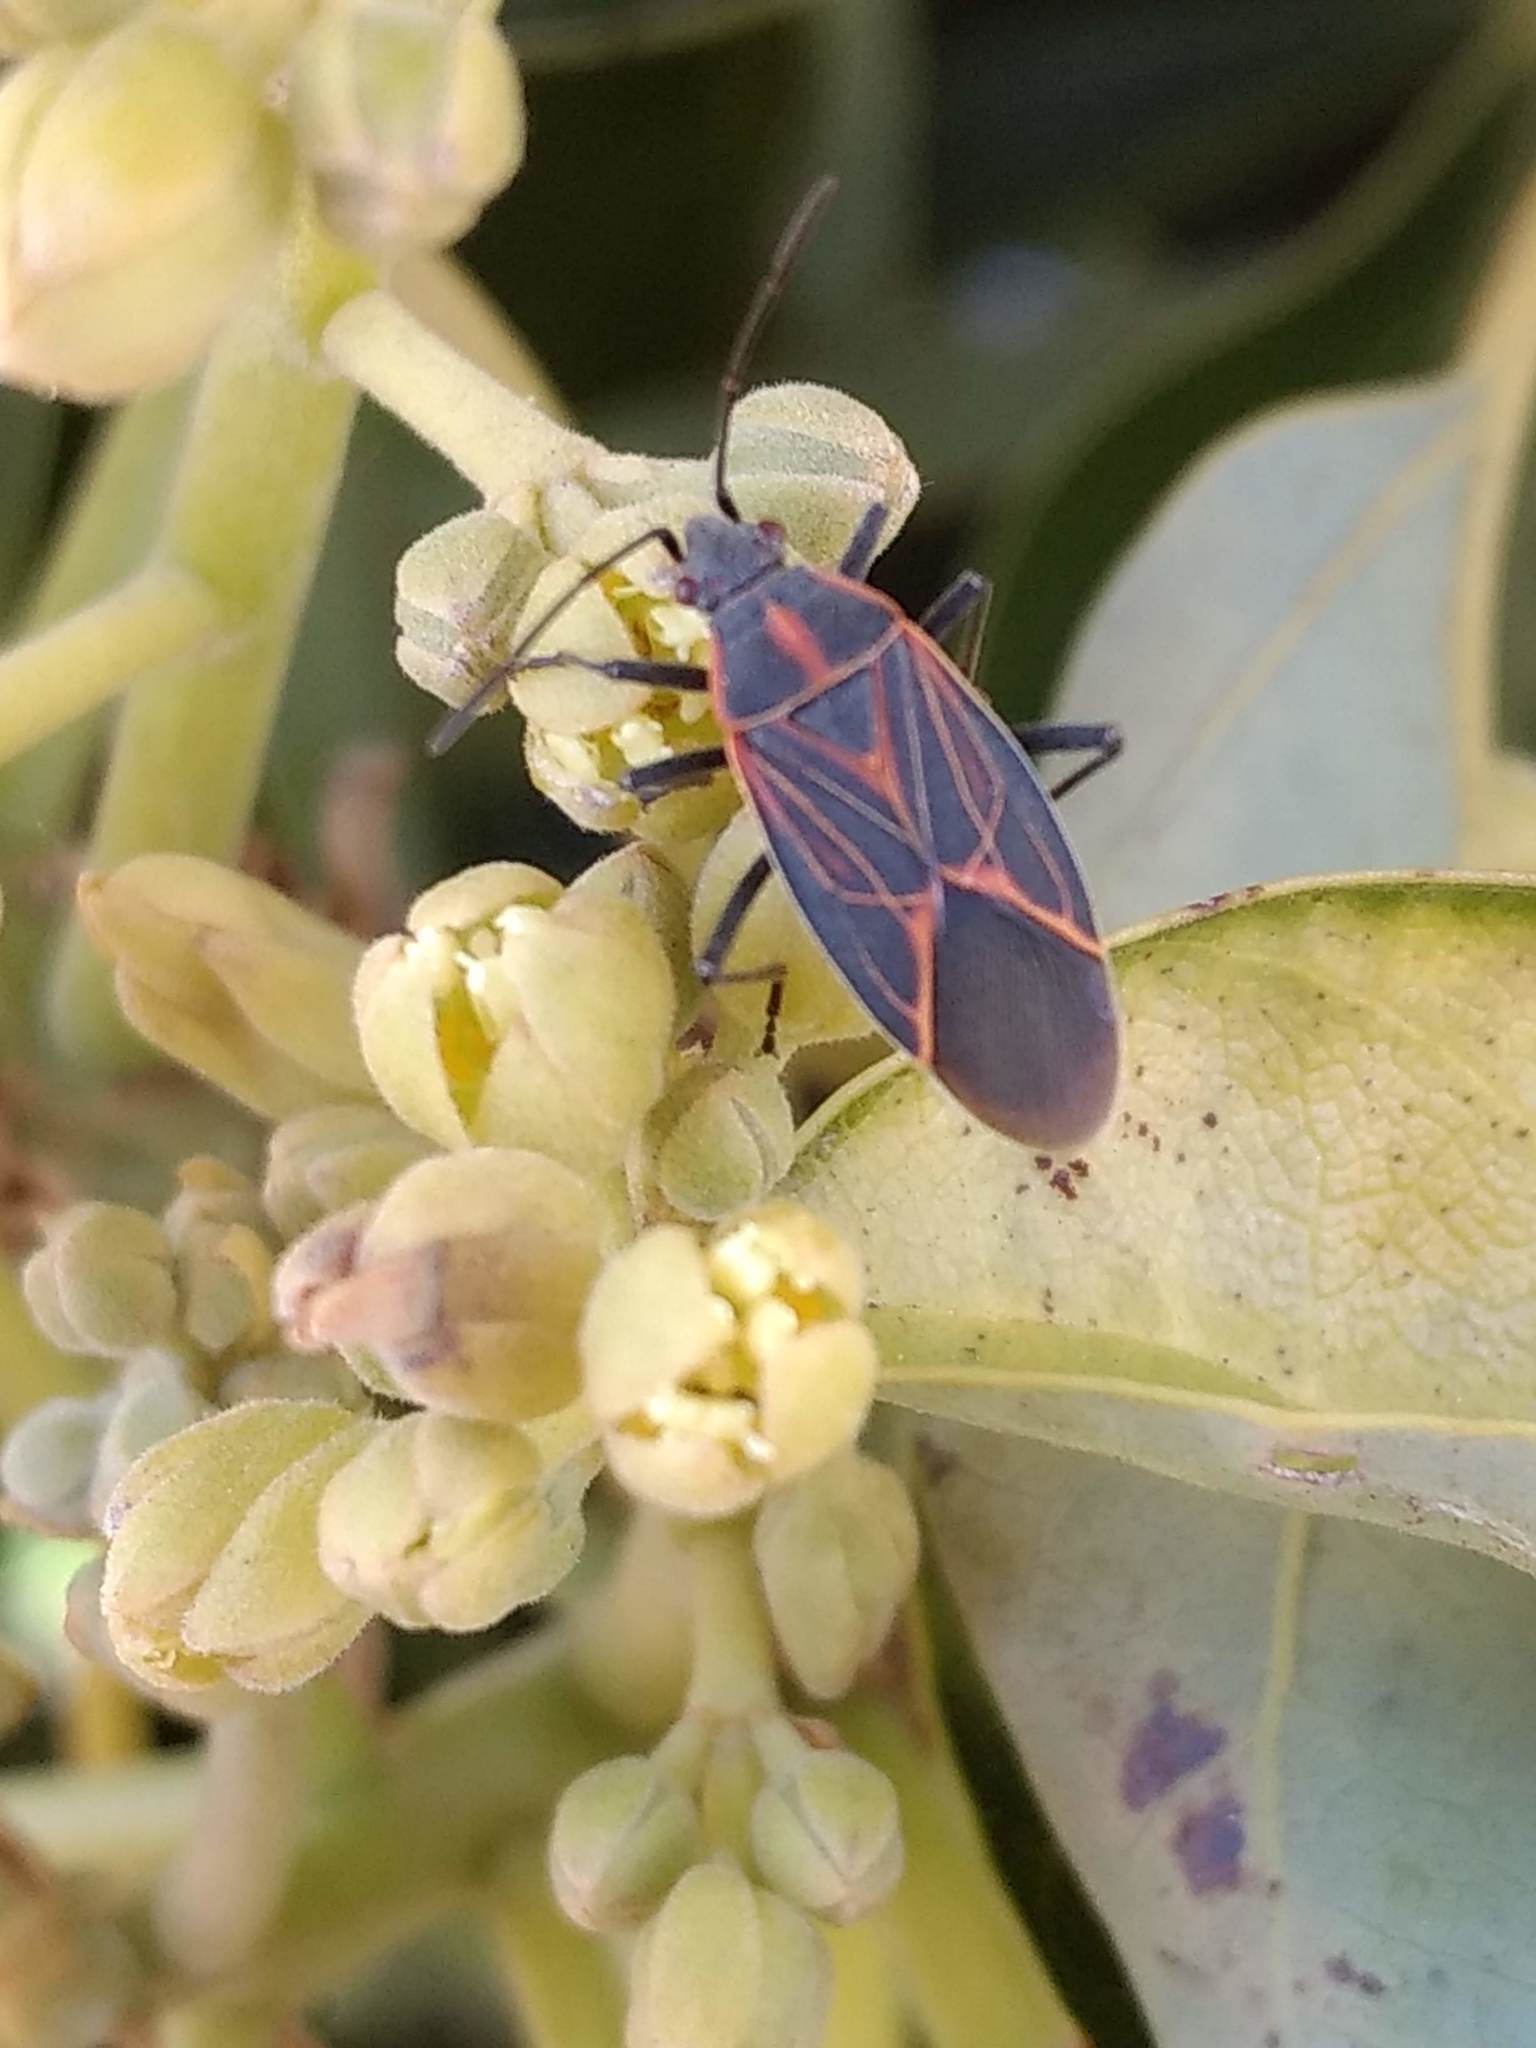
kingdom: Animalia
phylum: Arthropoda
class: Insecta
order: Hemiptera
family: Rhopalidae
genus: Boisea
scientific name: Boisea rubrolineata
